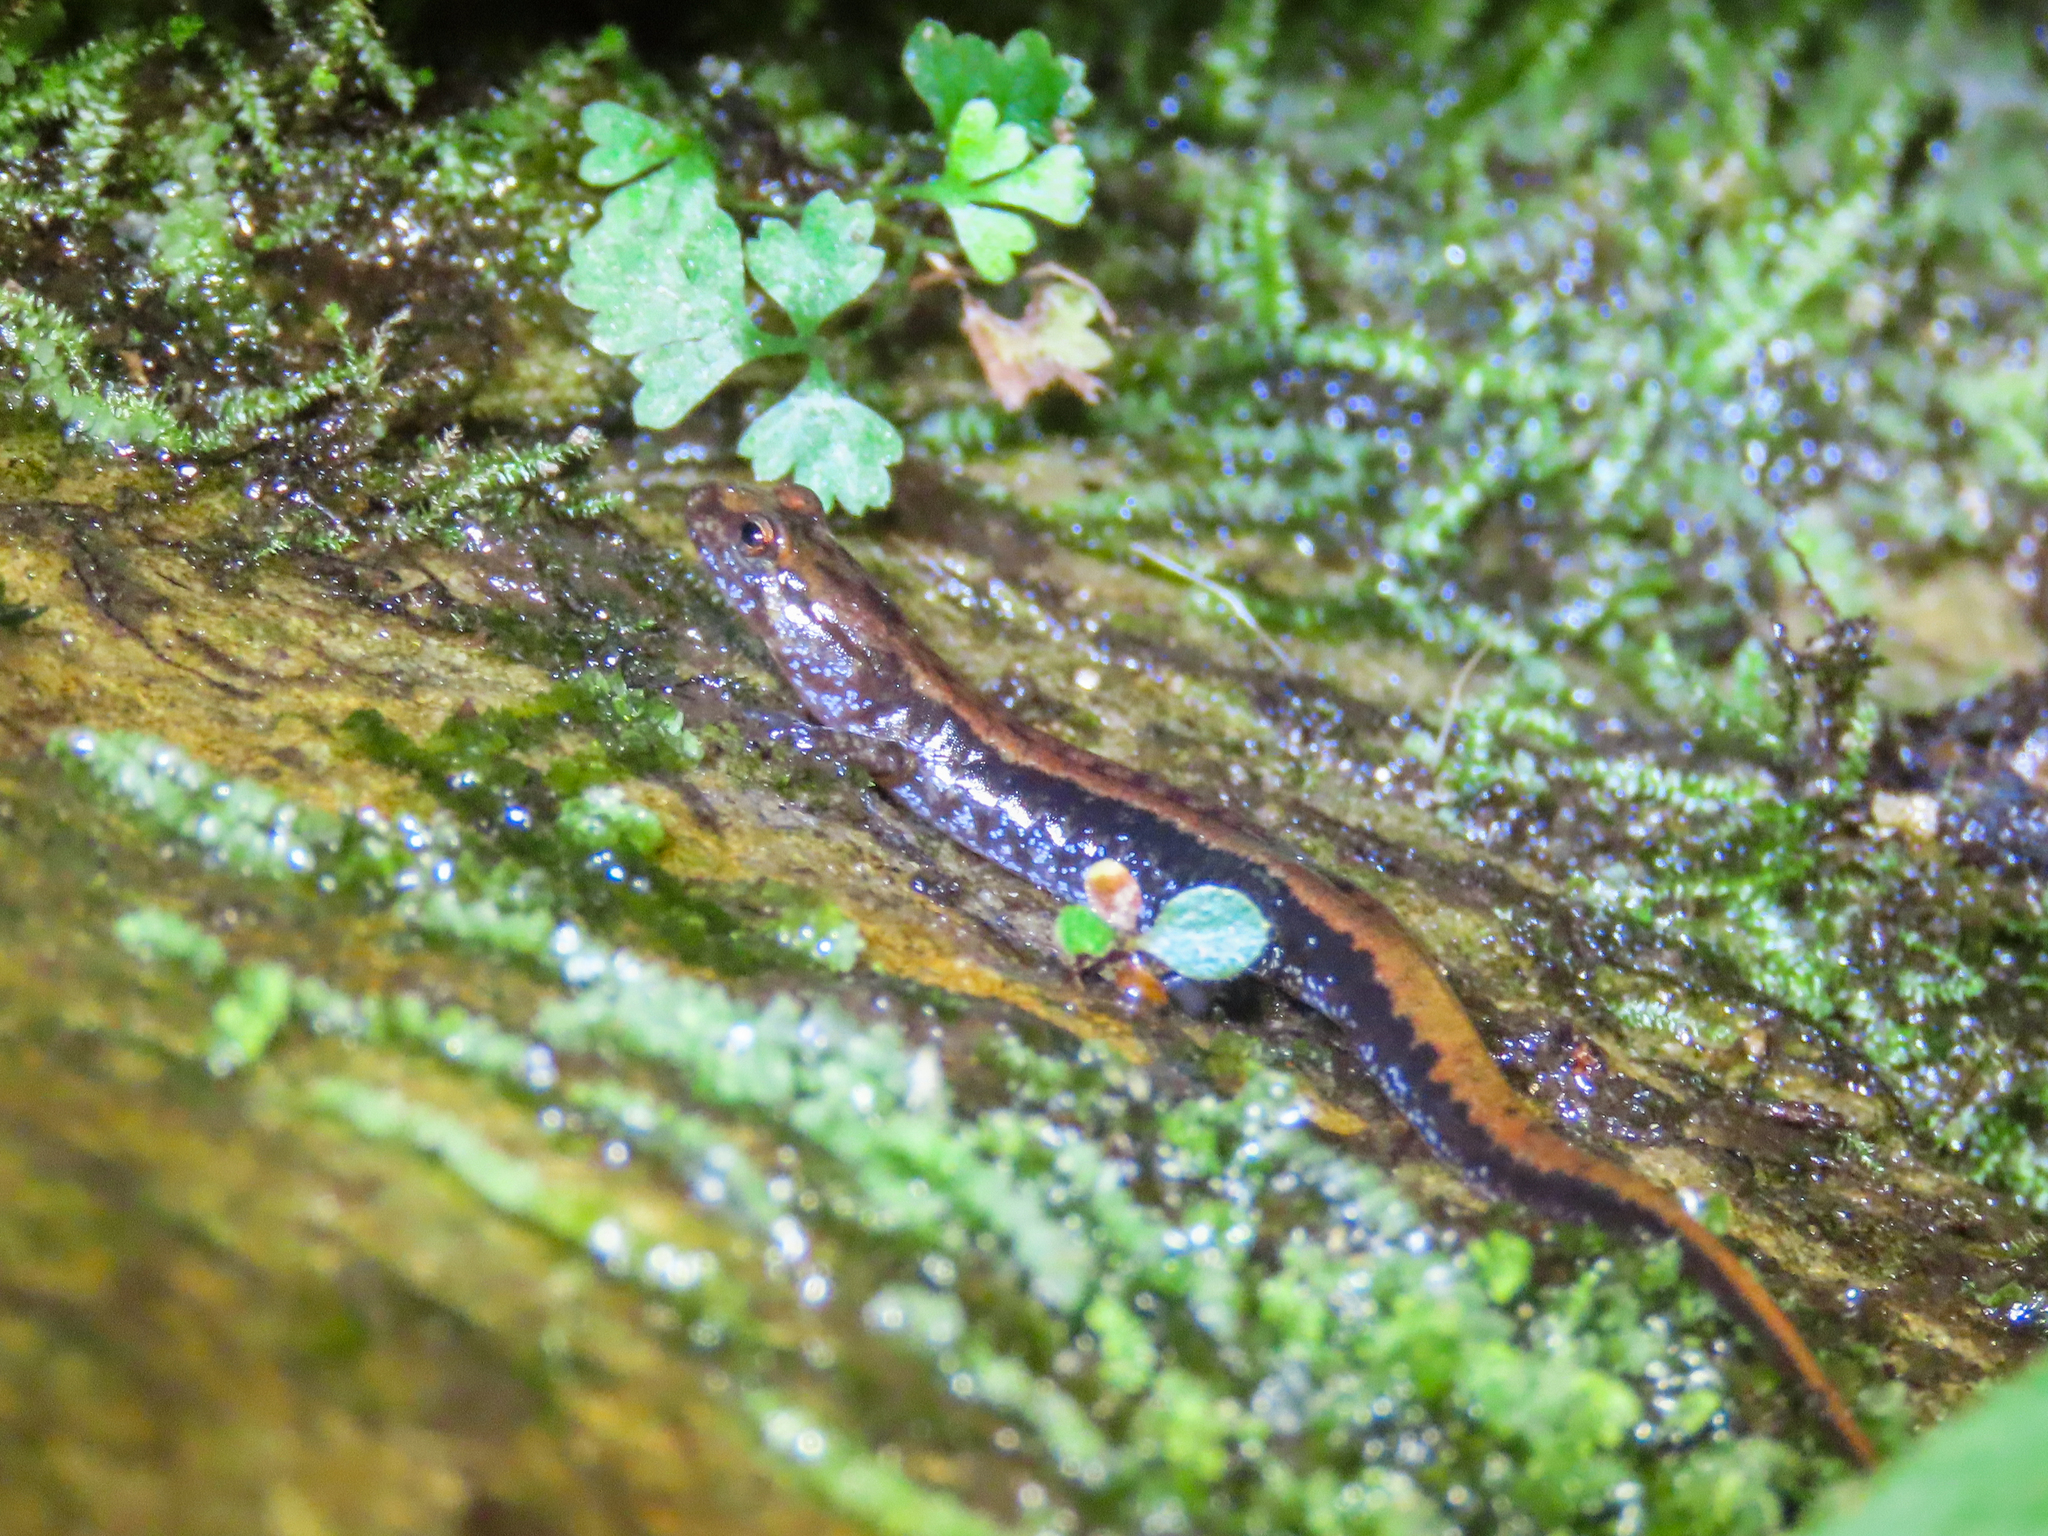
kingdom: Animalia
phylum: Chordata
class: Amphibia
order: Caudata
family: Plethodontidae
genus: Desmognathus
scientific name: Desmognathus ochrophaeus
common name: Allegheny mountain dusky salamander
